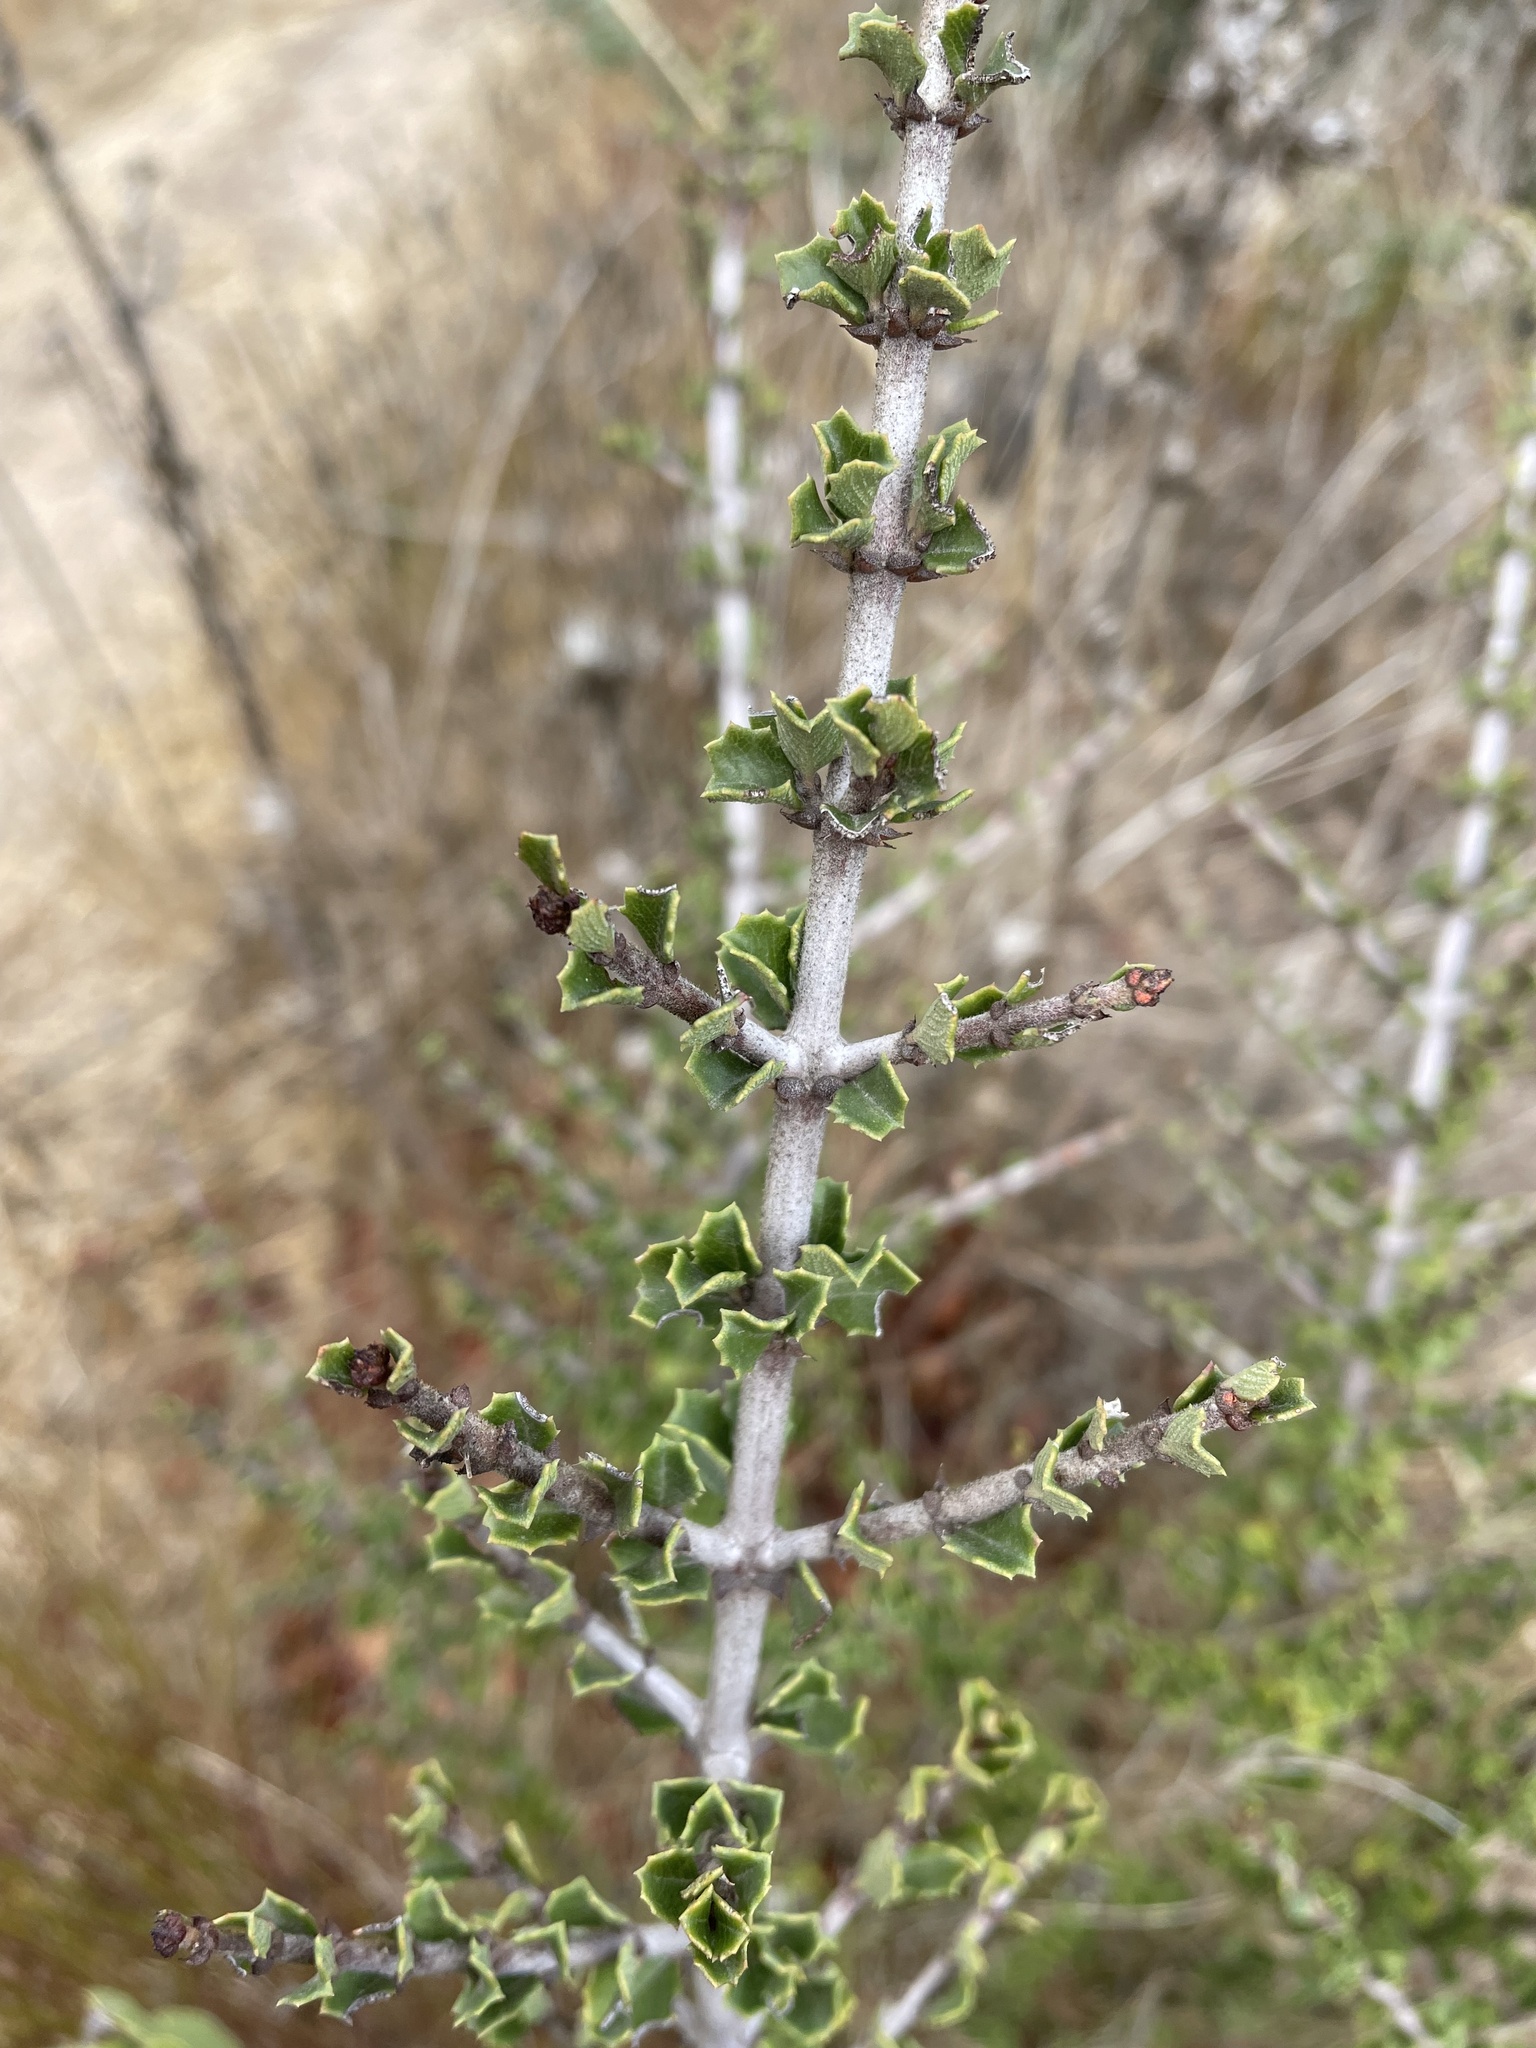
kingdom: Plantae
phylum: Tracheophyta
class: Magnoliopsida
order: Rosales
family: Rhamnaceae
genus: Ceanothus
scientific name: Ceanothus cuneatus
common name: Cuneate ceanothus
